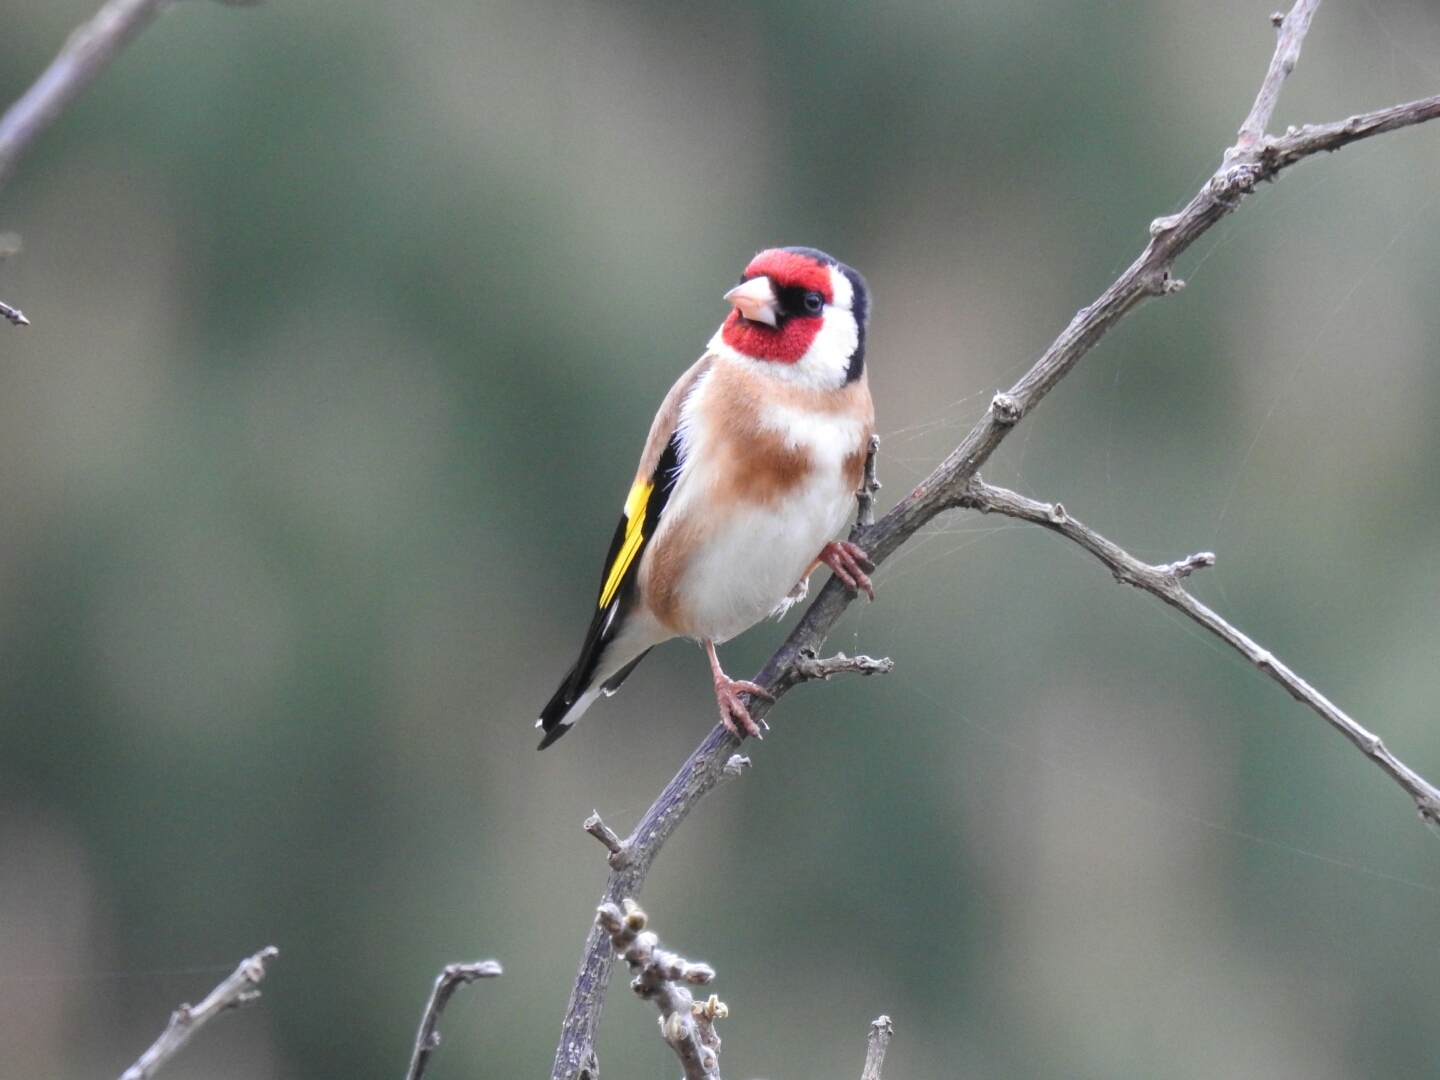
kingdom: Animalia
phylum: Chordata
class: Aves
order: Passeriformes
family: Fringillidae
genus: Carduelis
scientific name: Carduelis carduelis
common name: European goldfinch
